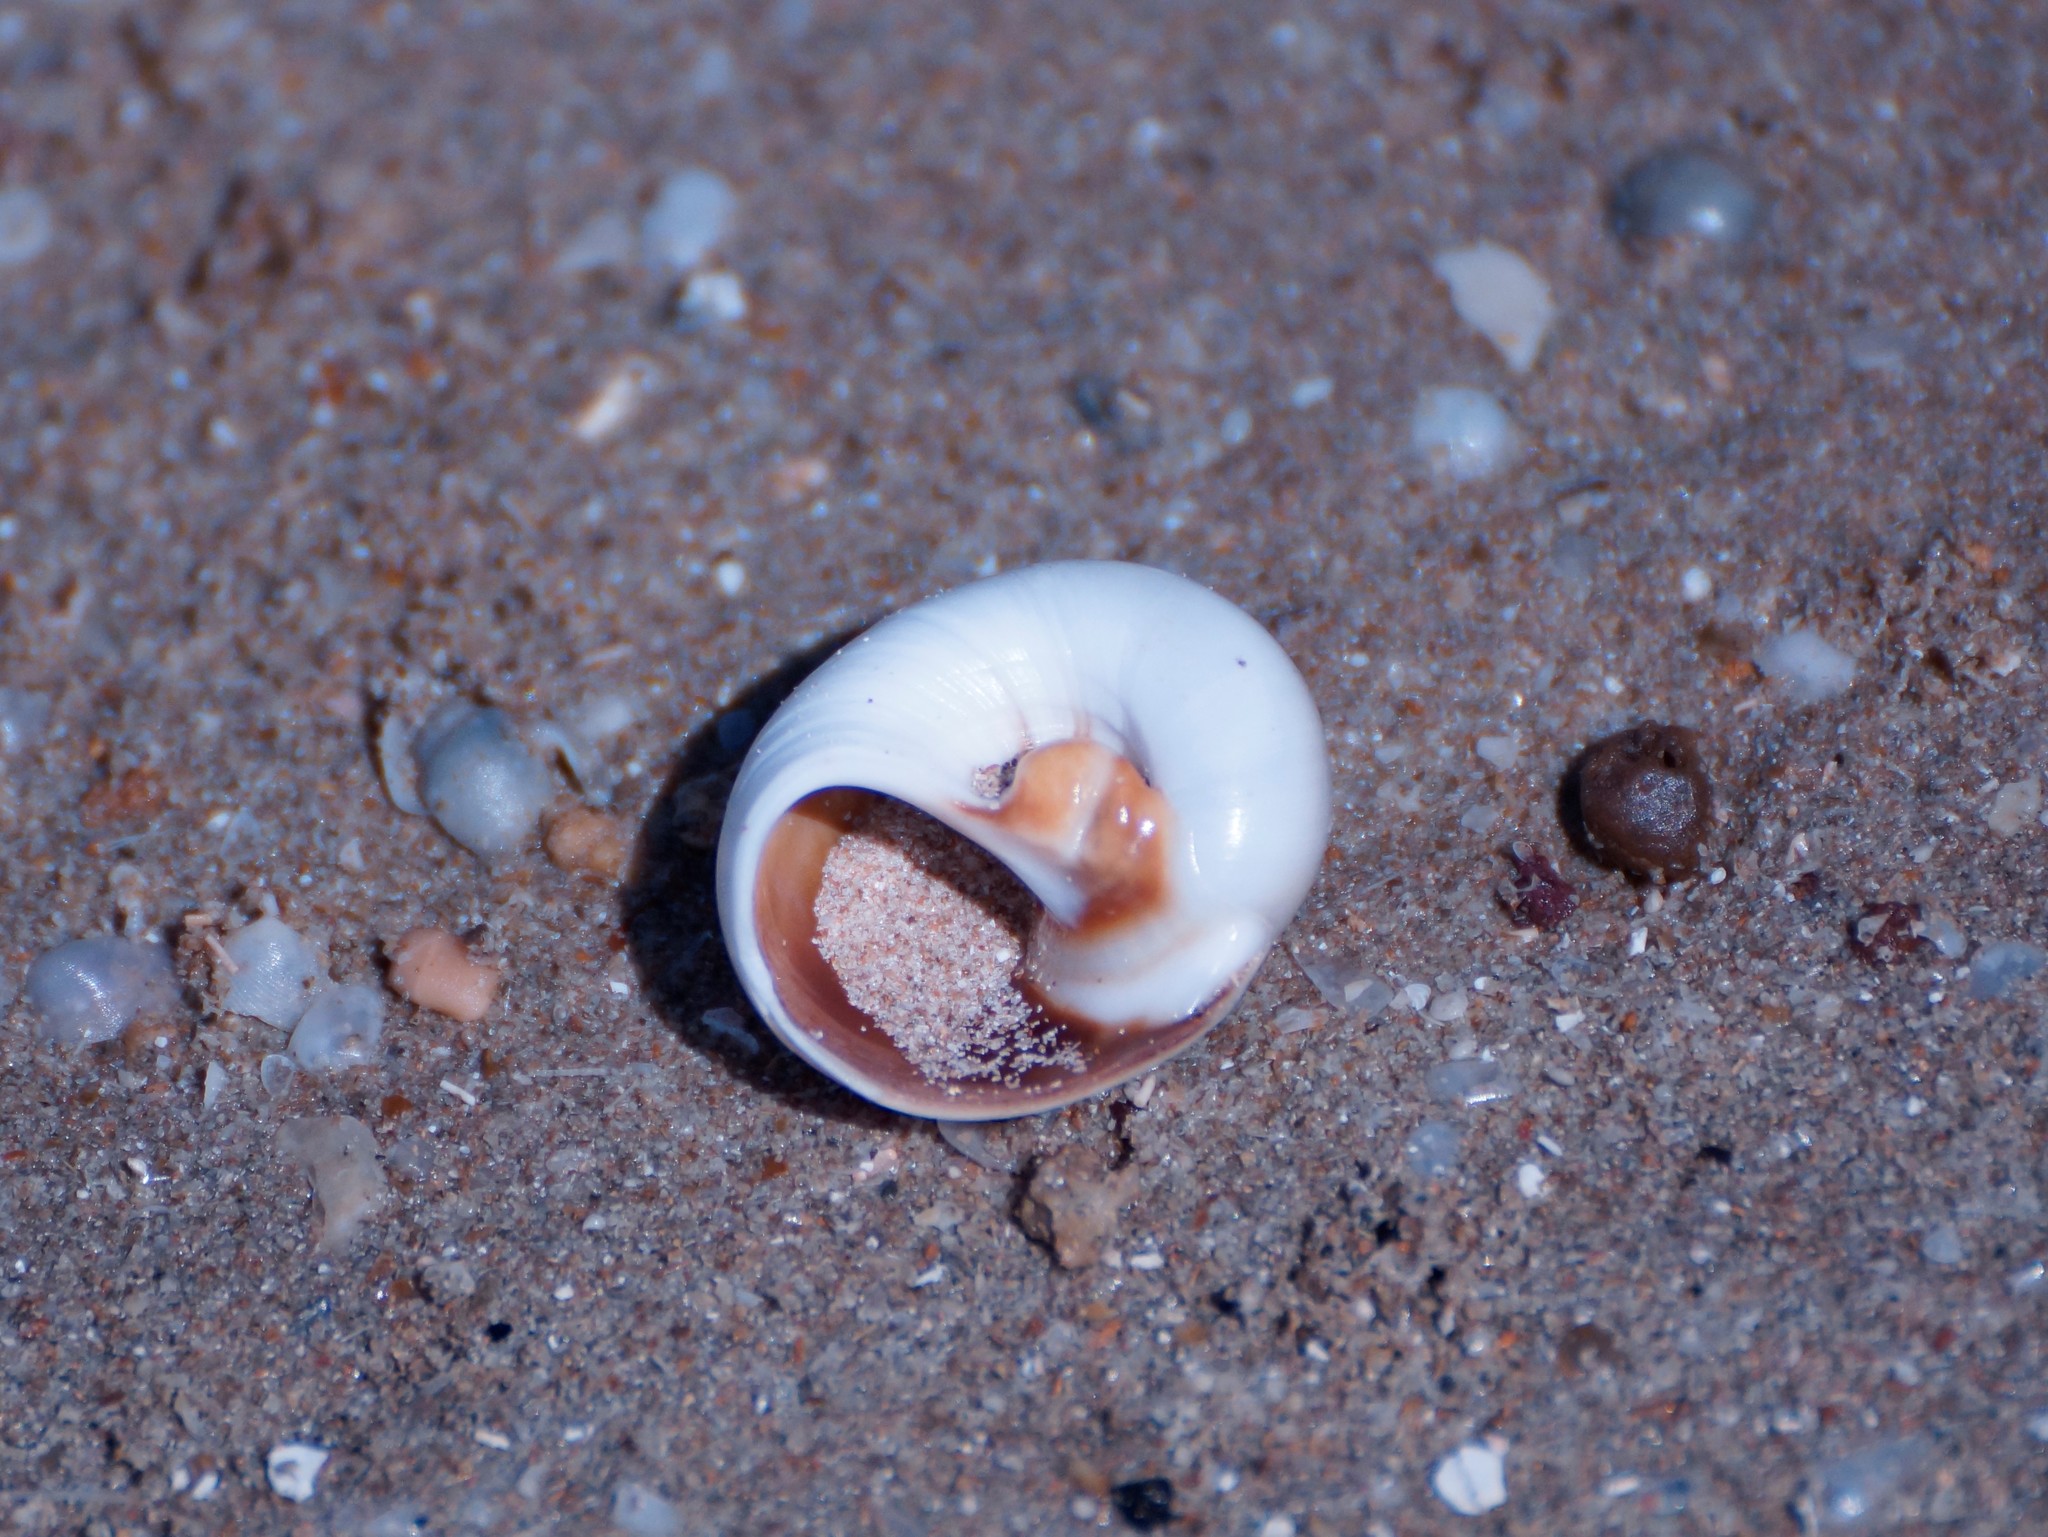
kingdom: Animalia
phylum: Mollusca
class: Gastropoda
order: Littorinimorpha
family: Naticidae
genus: Neverita
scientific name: Neverita didyma
